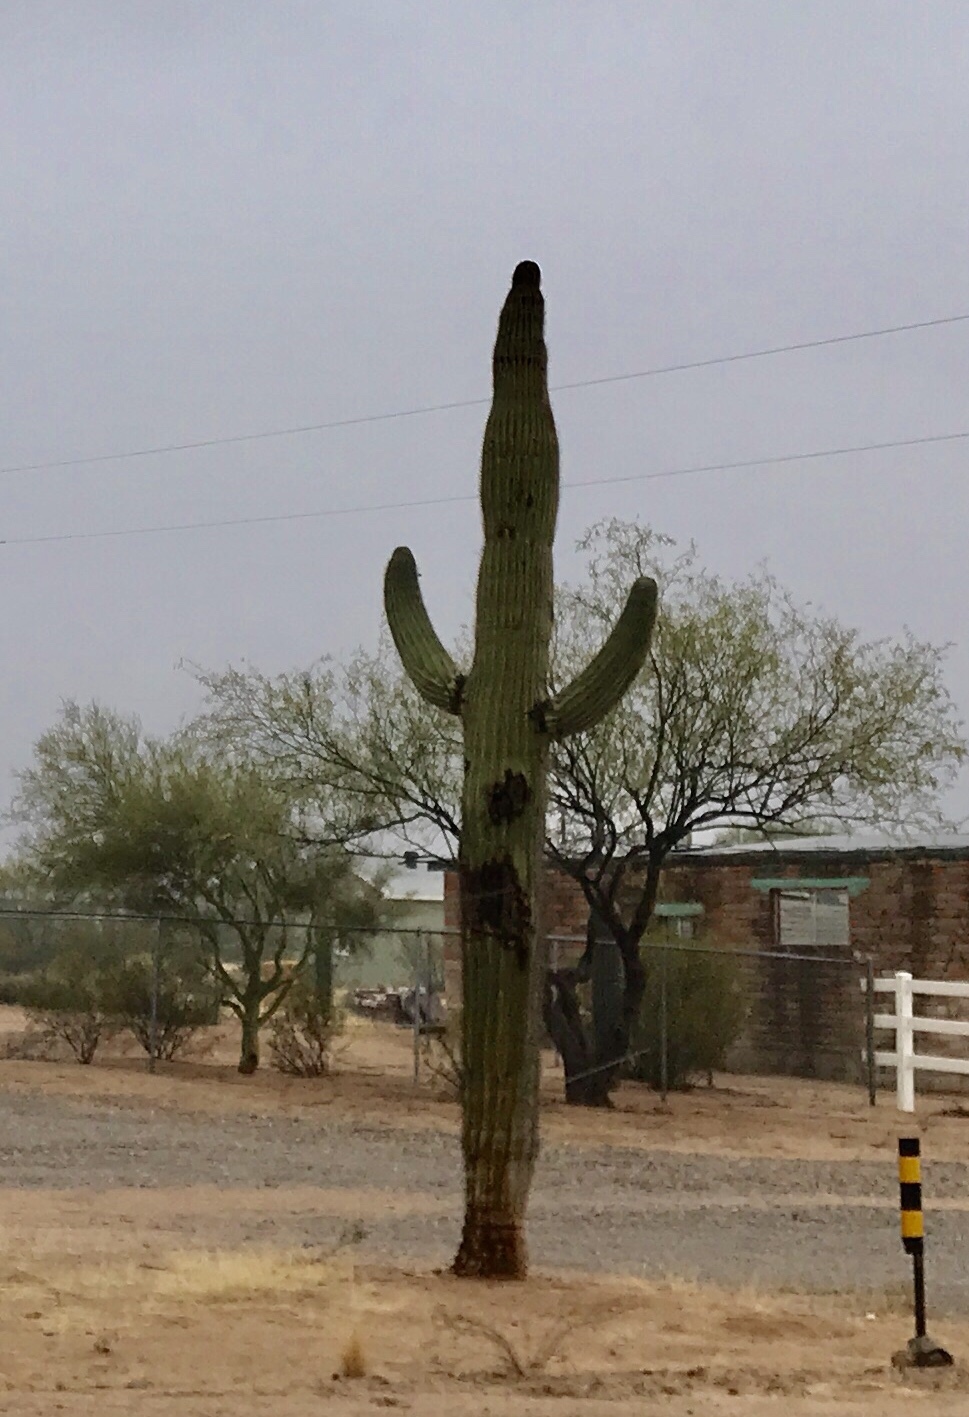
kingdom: Plantae
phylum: Tracheophyta
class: Magnoliopsida
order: Caryophyllales
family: Cactaceae
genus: Carnegiea
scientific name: Carnegiea gigantea
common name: Saguaro
